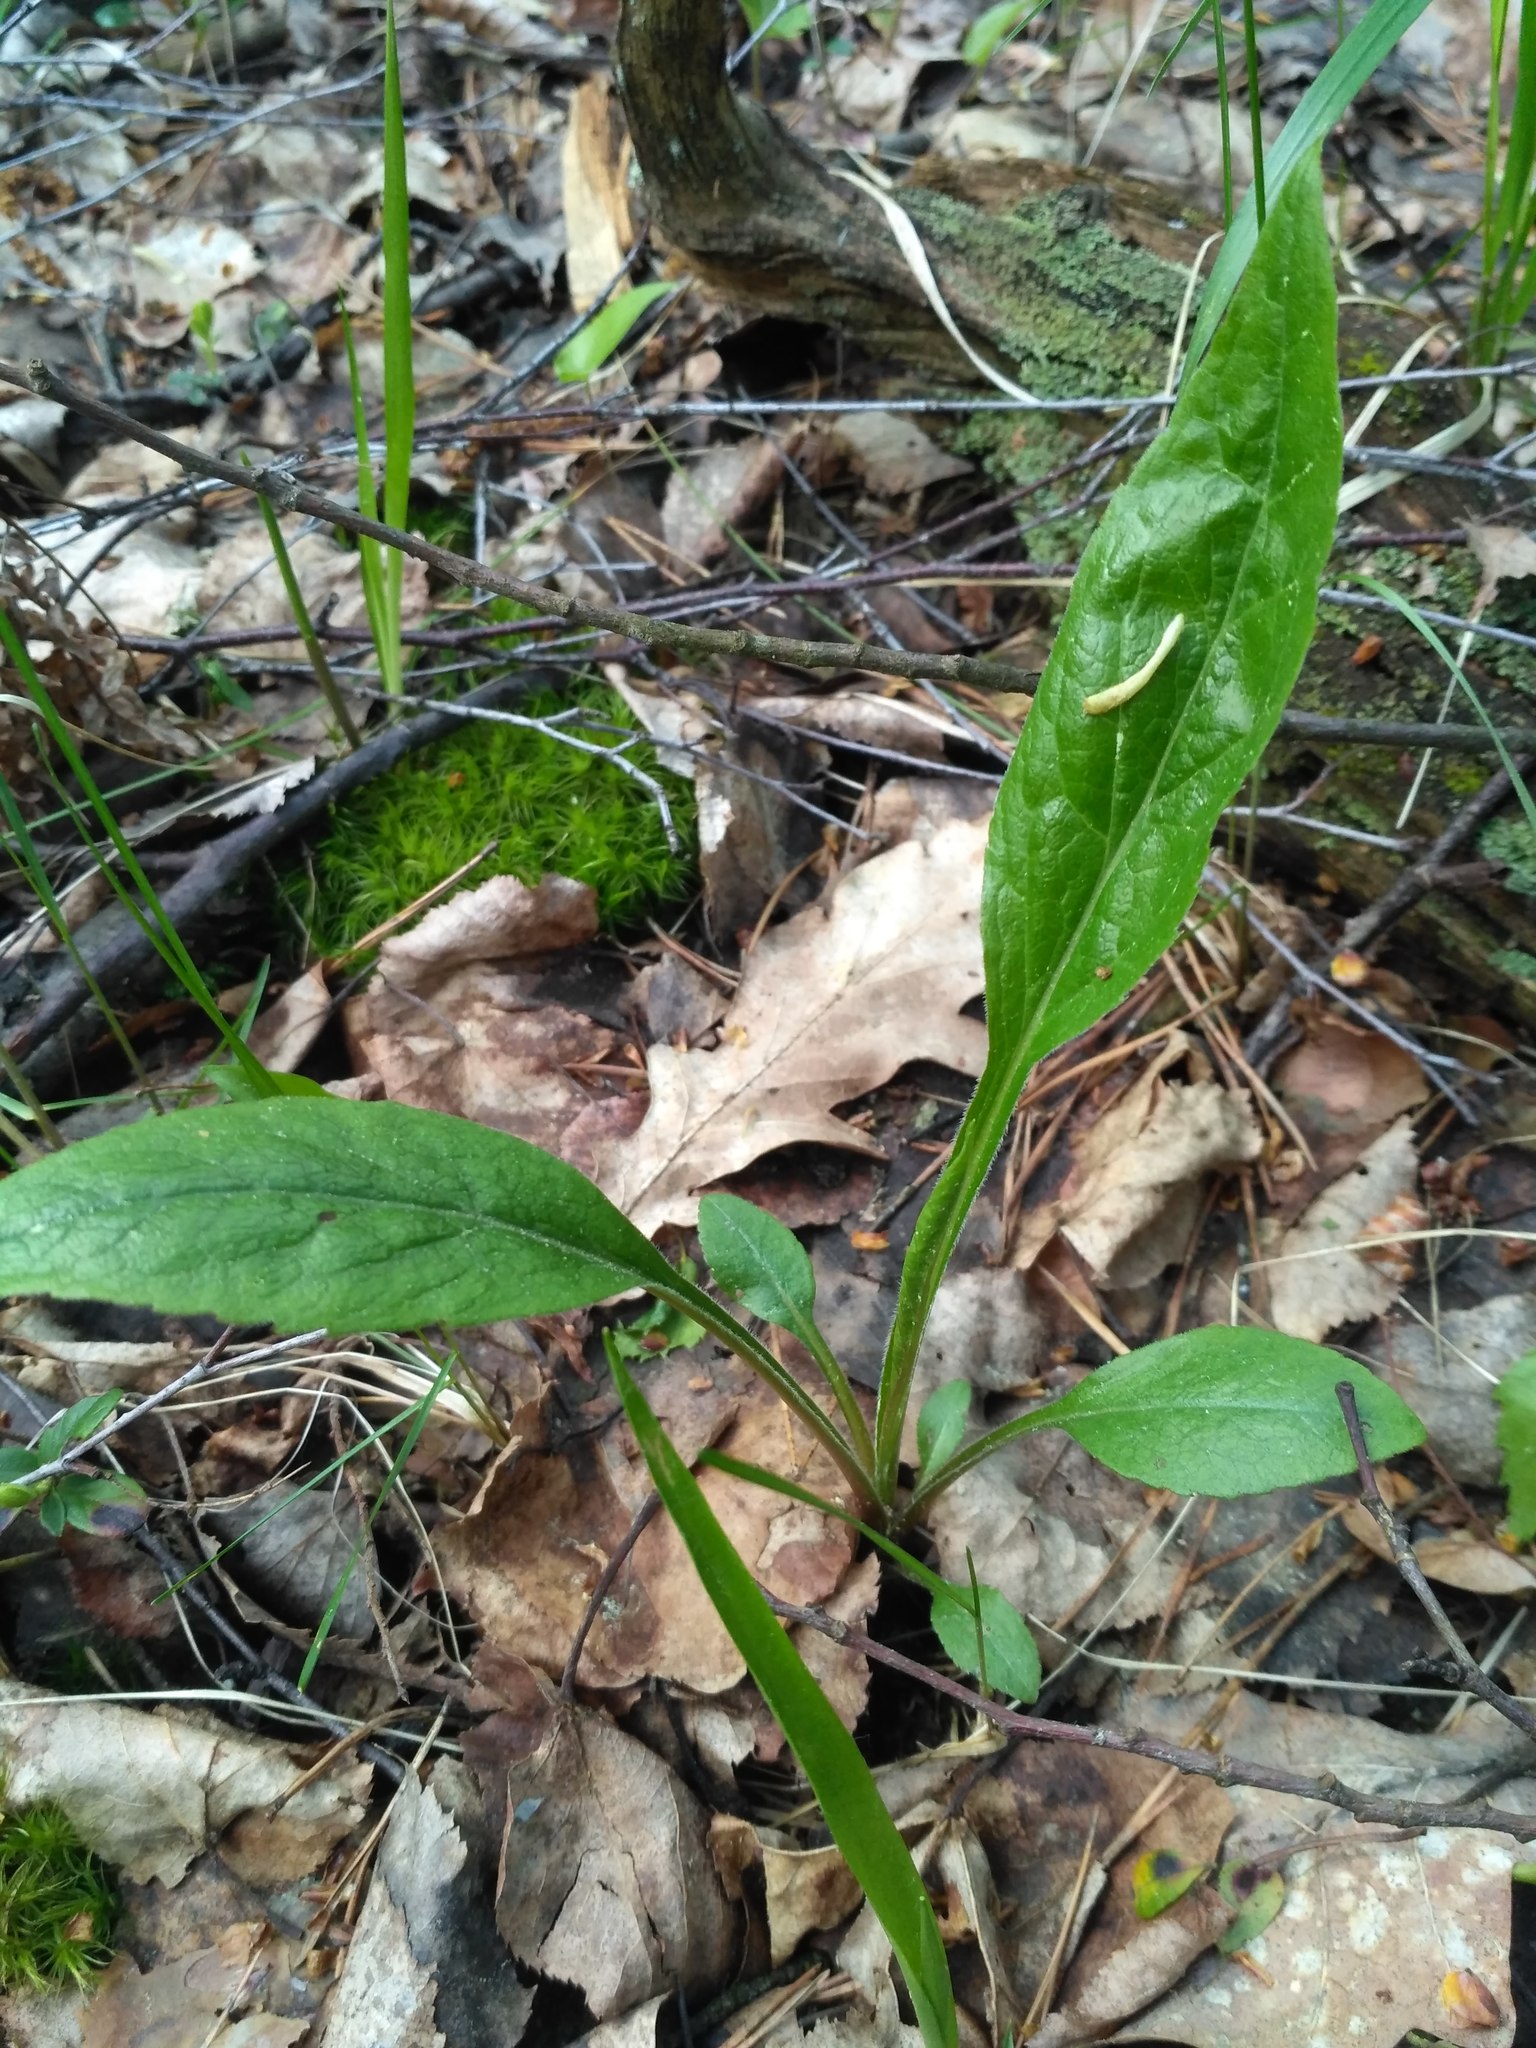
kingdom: Plantae
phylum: Tracheophyta
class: Magnoliopsida
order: Asterales
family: Asteraceae
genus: Solidago
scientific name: Solidago virgaurea
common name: Goldenrod
